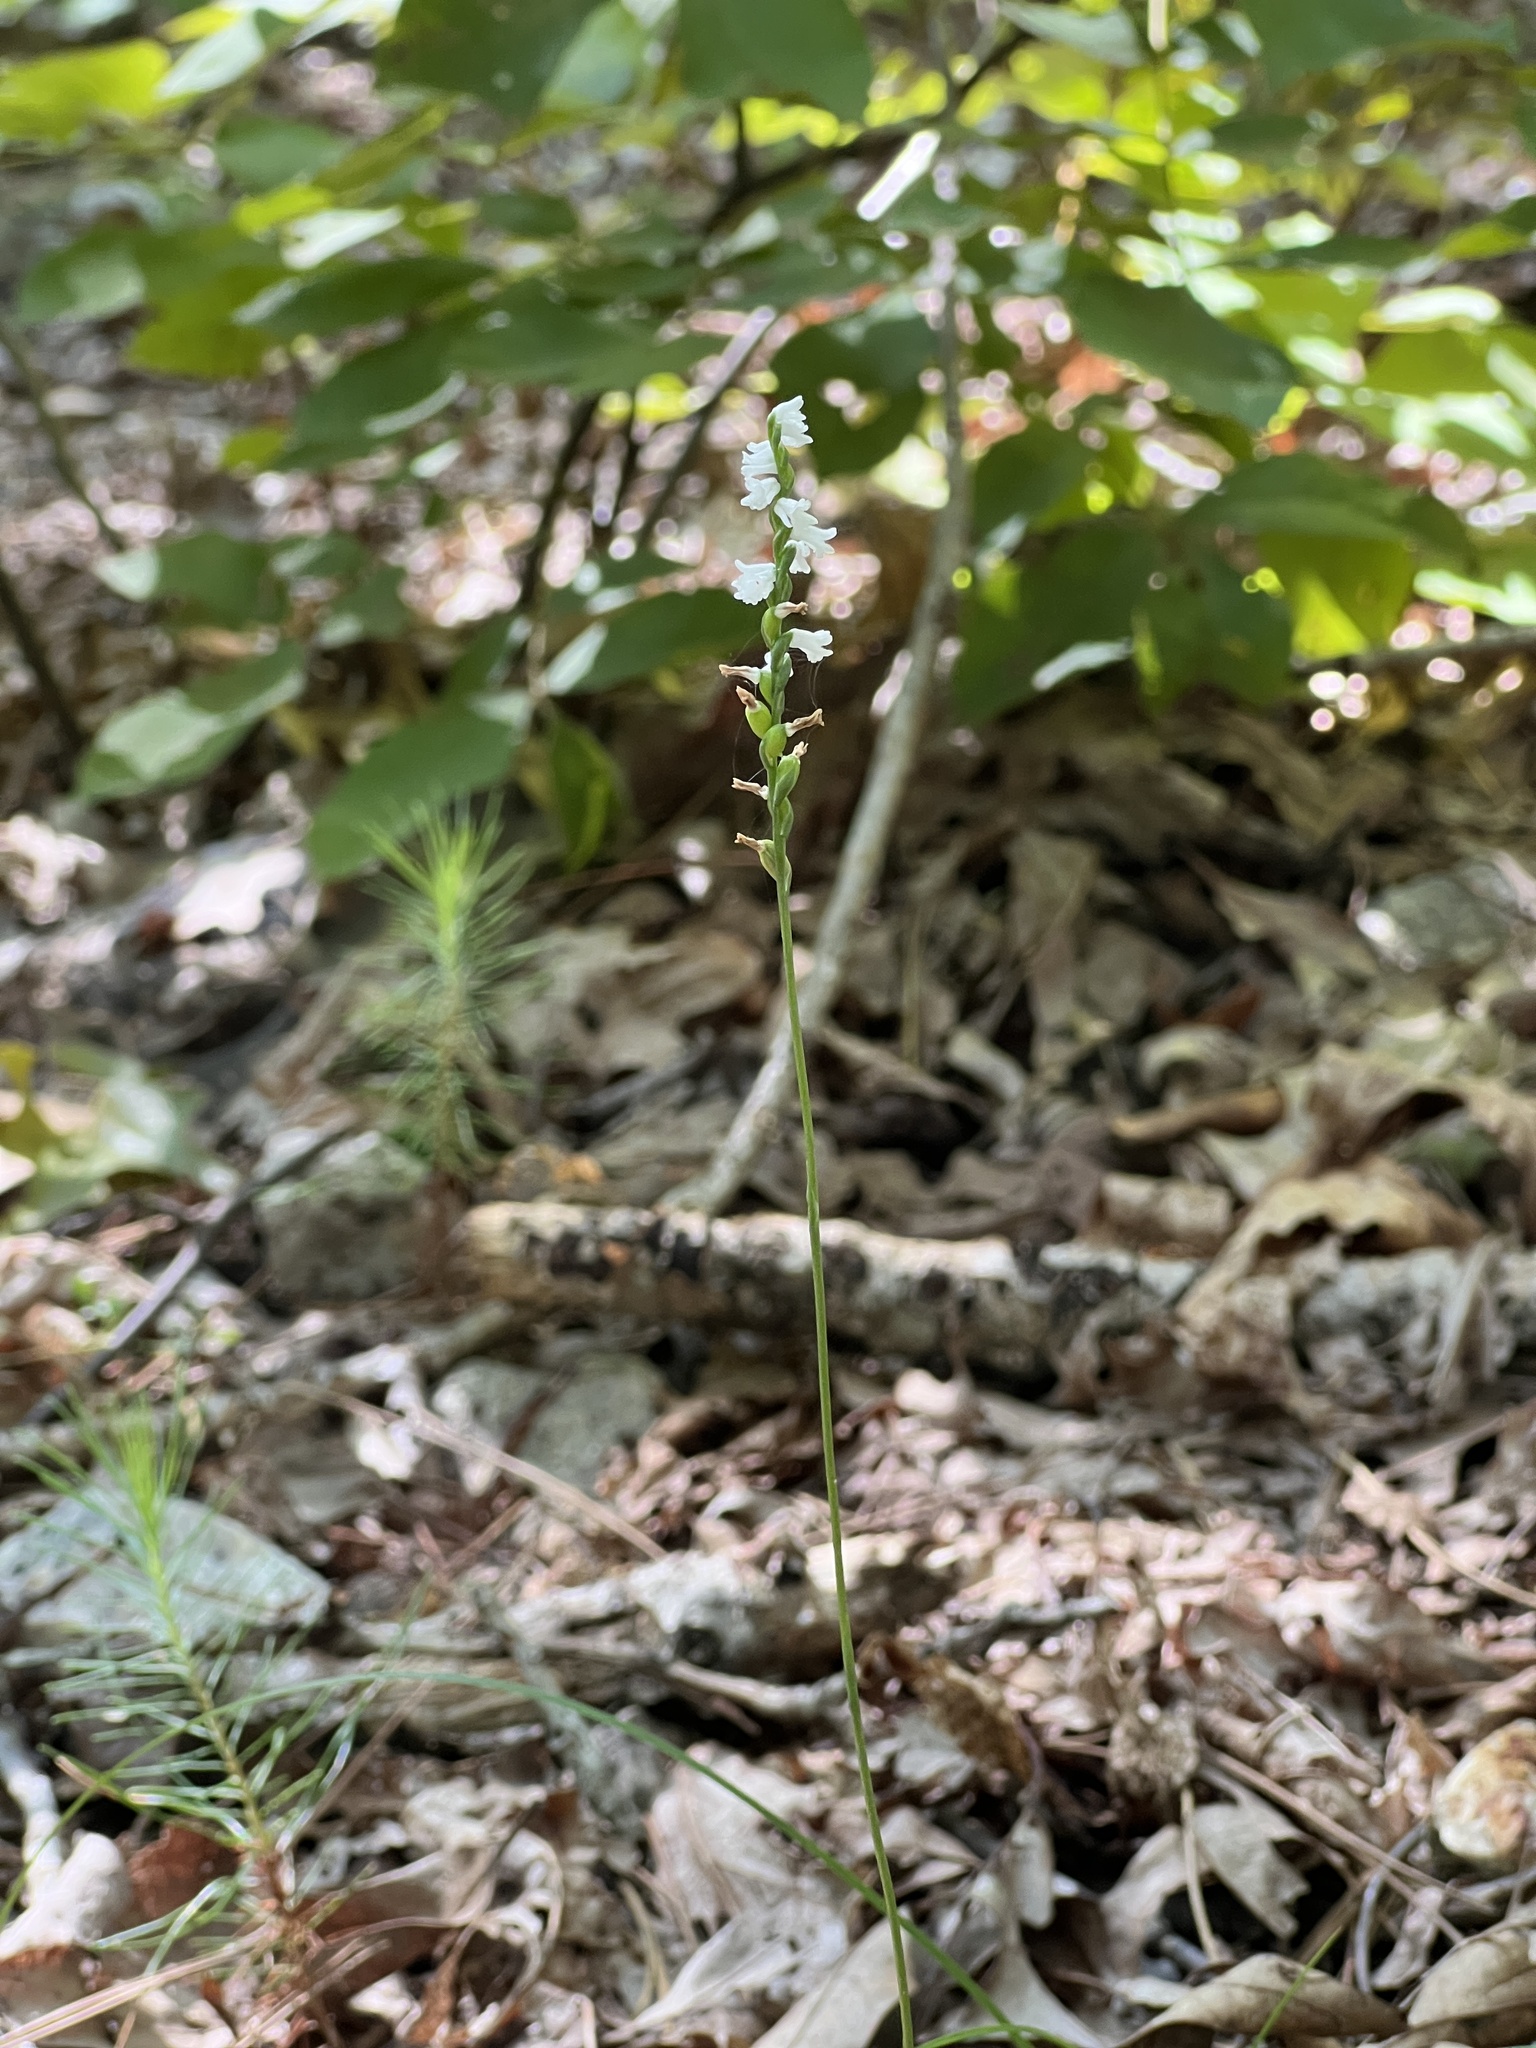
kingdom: Plantae
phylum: Tracheophyta
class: Liliopsida
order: Asparagales
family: Orchidaceae
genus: Spiranthes
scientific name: Spiranthes tuberosa
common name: Little ladies'-tresses
